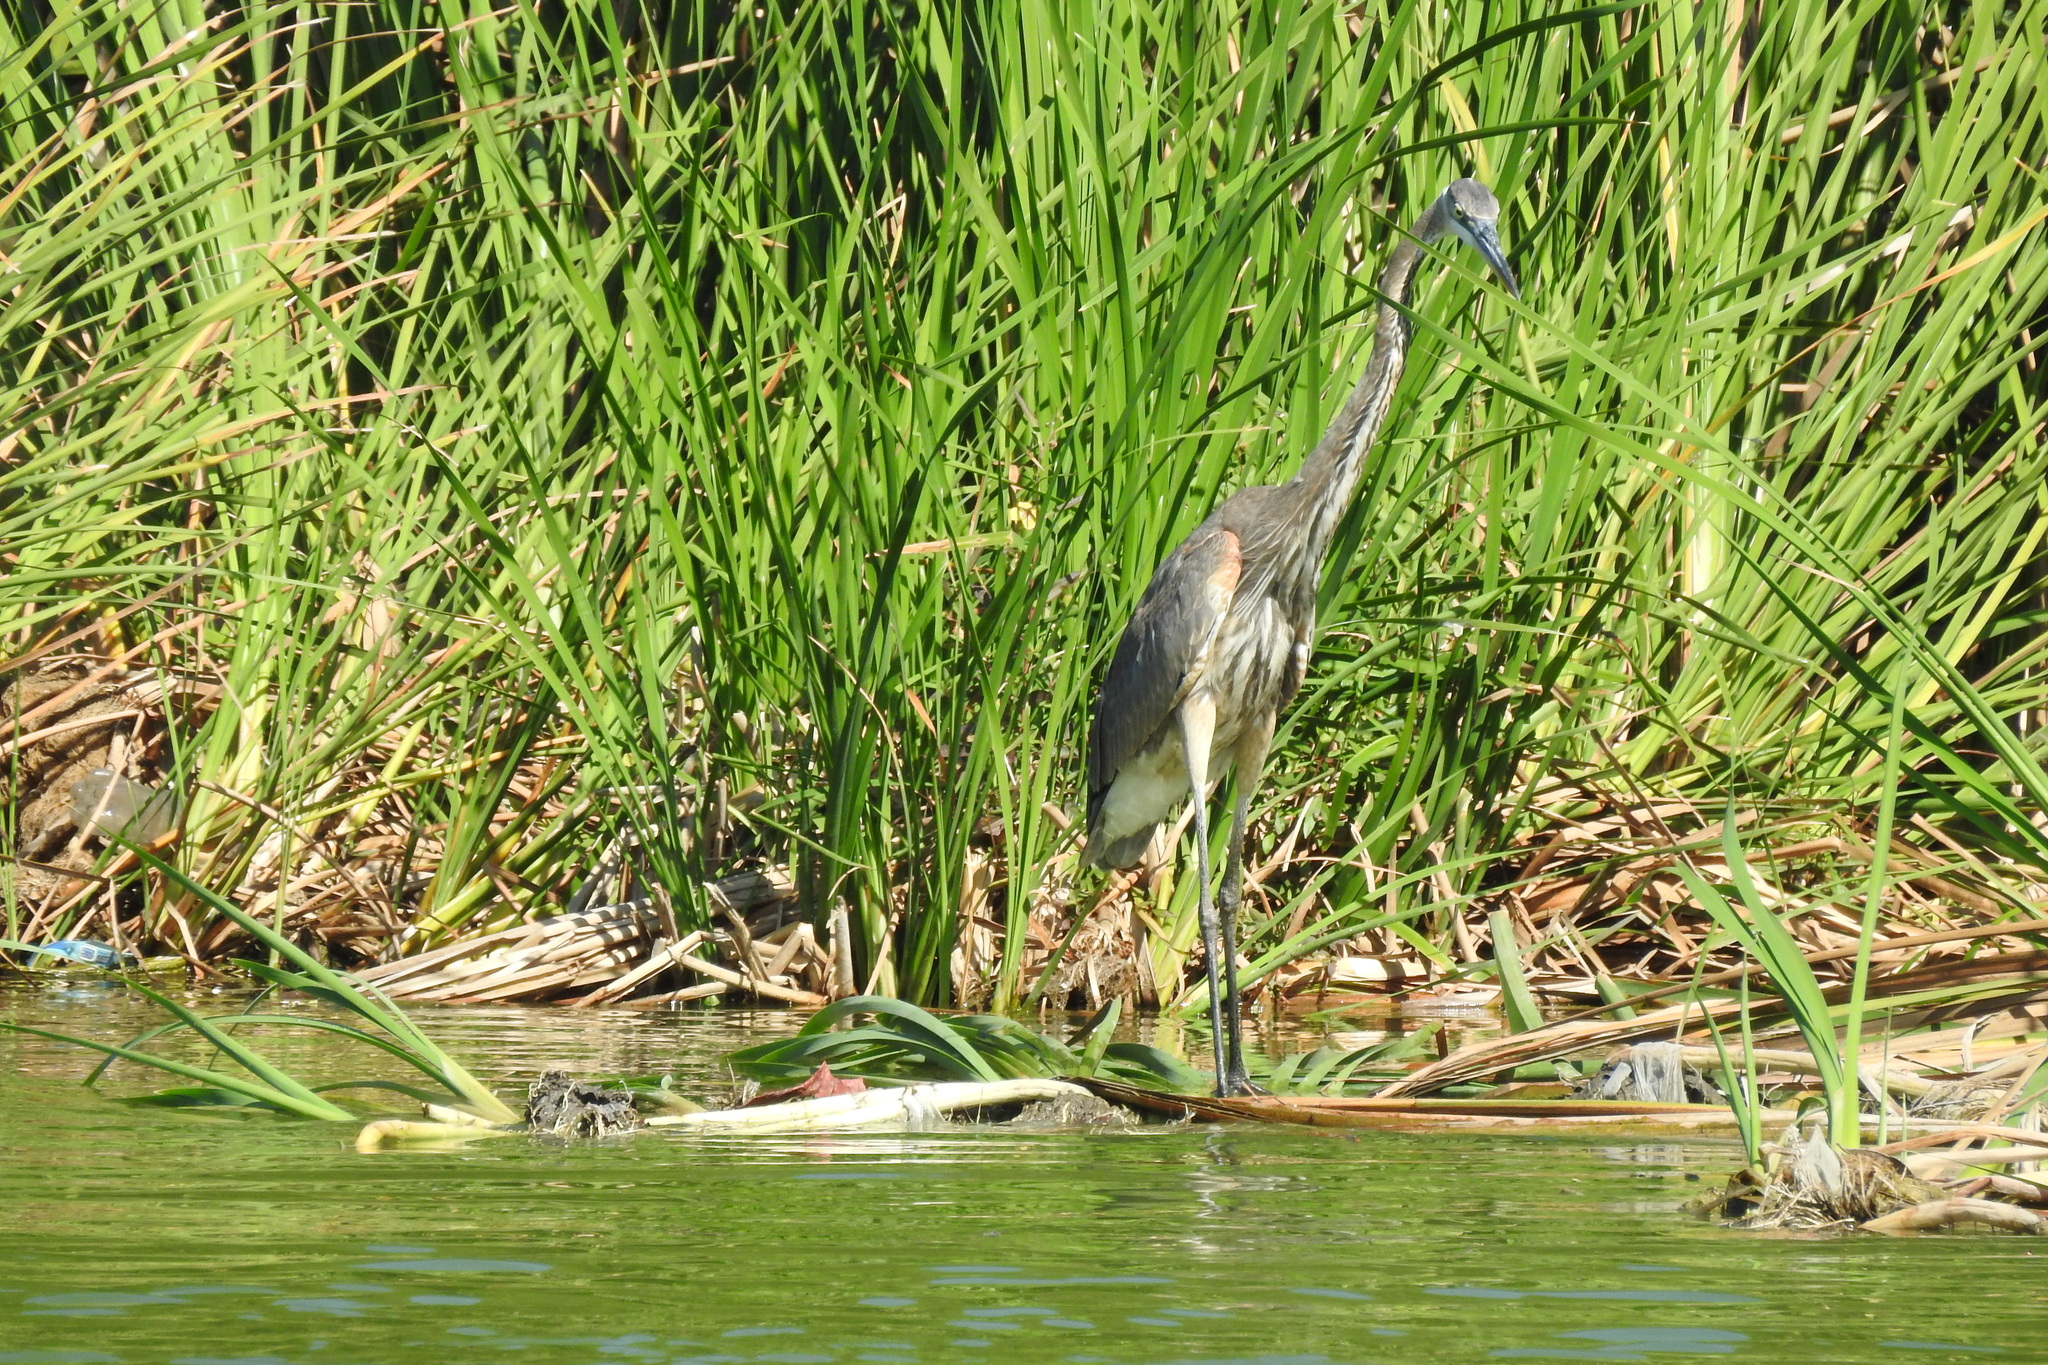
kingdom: Animalia
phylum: Chordata
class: Aves
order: Pelecaniformes
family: Ardeidae
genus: Ardea
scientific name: Ardea herodias
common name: Great blue heron
